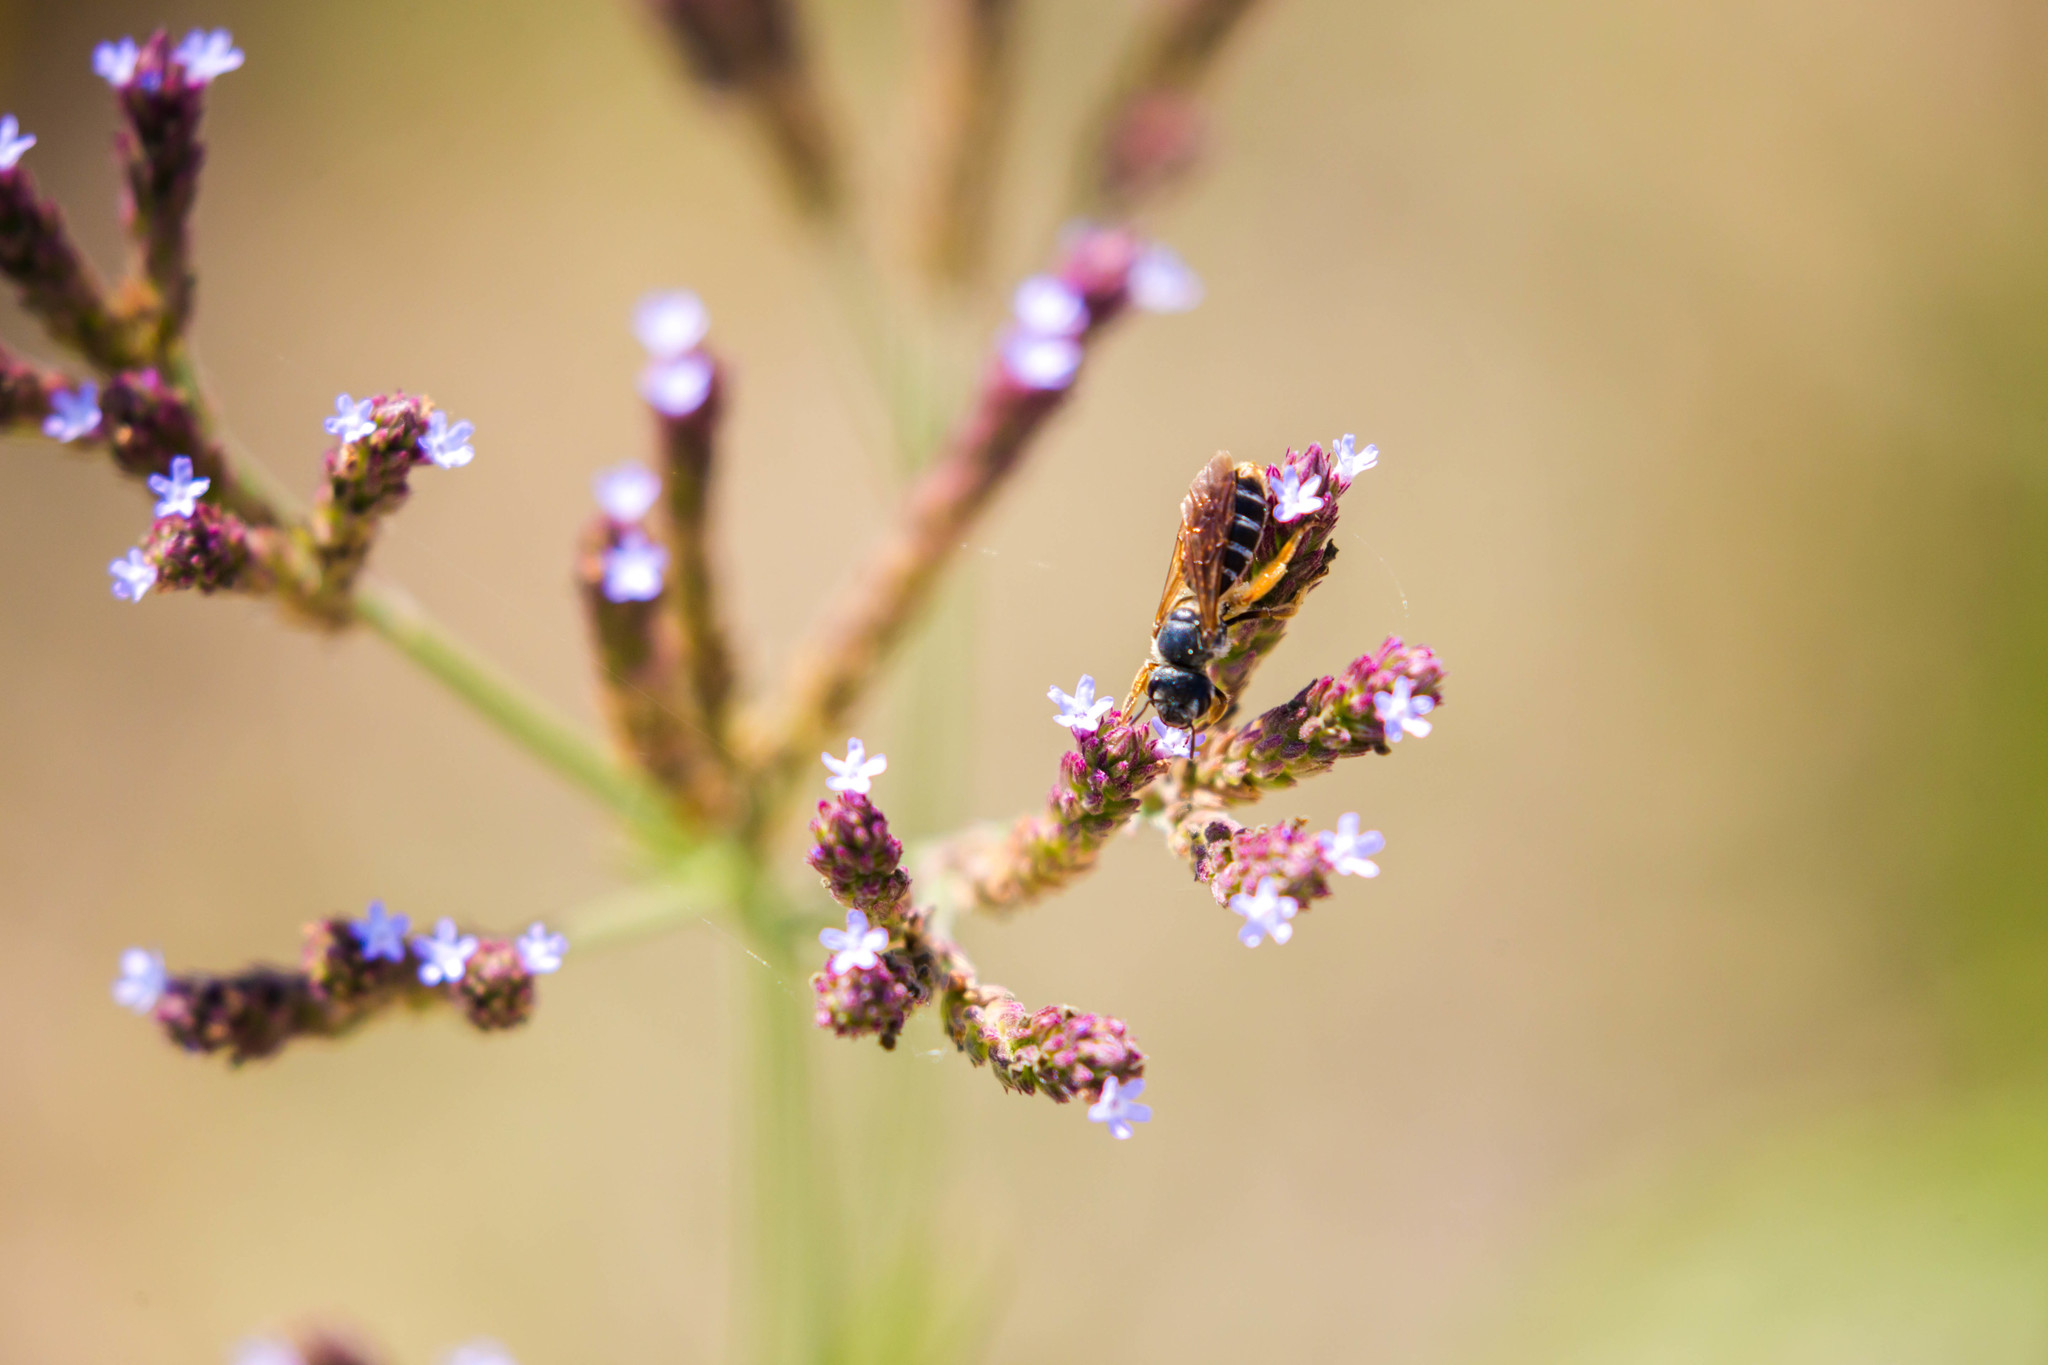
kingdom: Animalia
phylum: Arthropoda
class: Insecta
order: Hymenoptera
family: Halictidae
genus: Halictus
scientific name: Halictus parallelus
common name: Parallel-striped sweat bee
